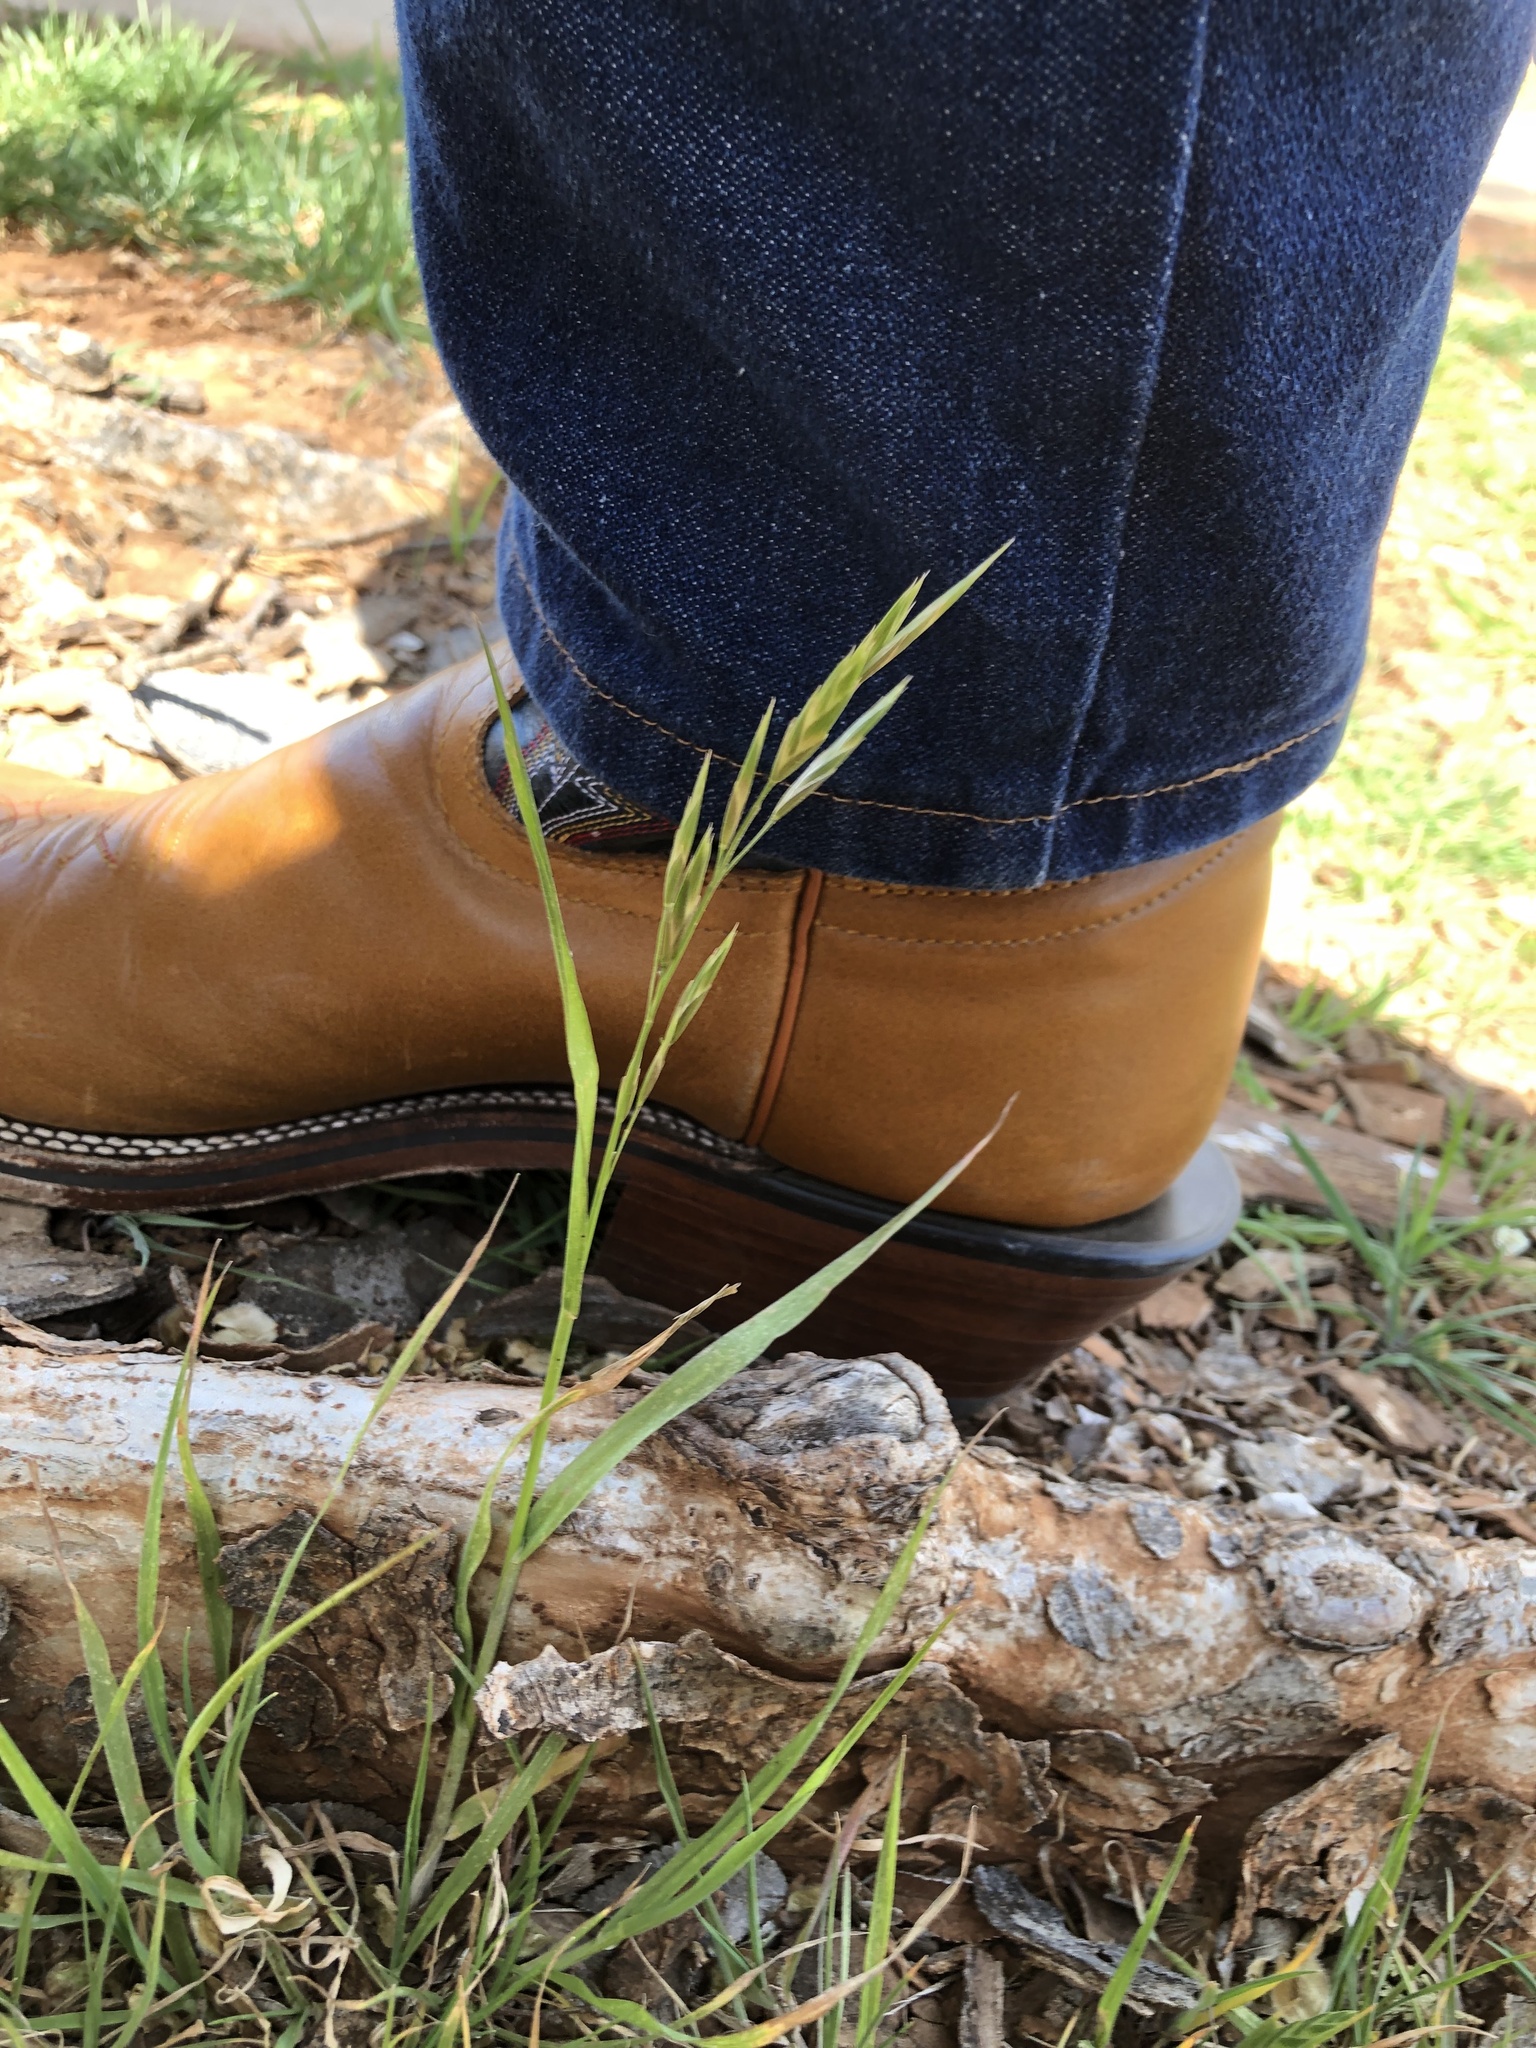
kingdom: Plantae
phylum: Tracheophyta
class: Liliopsida
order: Poales
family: Poaceae
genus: Bromus
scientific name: Bromus catharticus
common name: Rescuegrass
